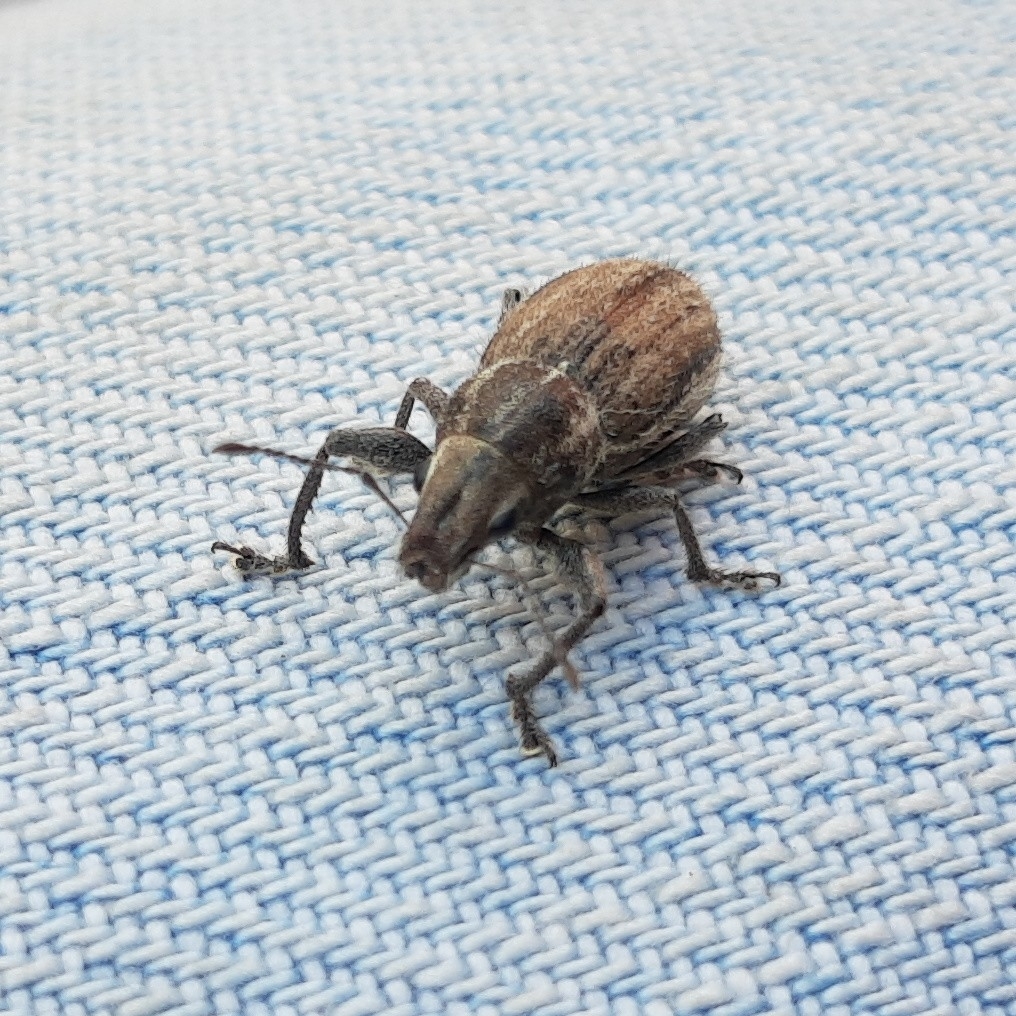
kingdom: Animalia
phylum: Arthropoda
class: Insecta
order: Coleoptera
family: Curculionidae
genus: Naupactus
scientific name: Naupactus leucoloma
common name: Whitefringed beetle
